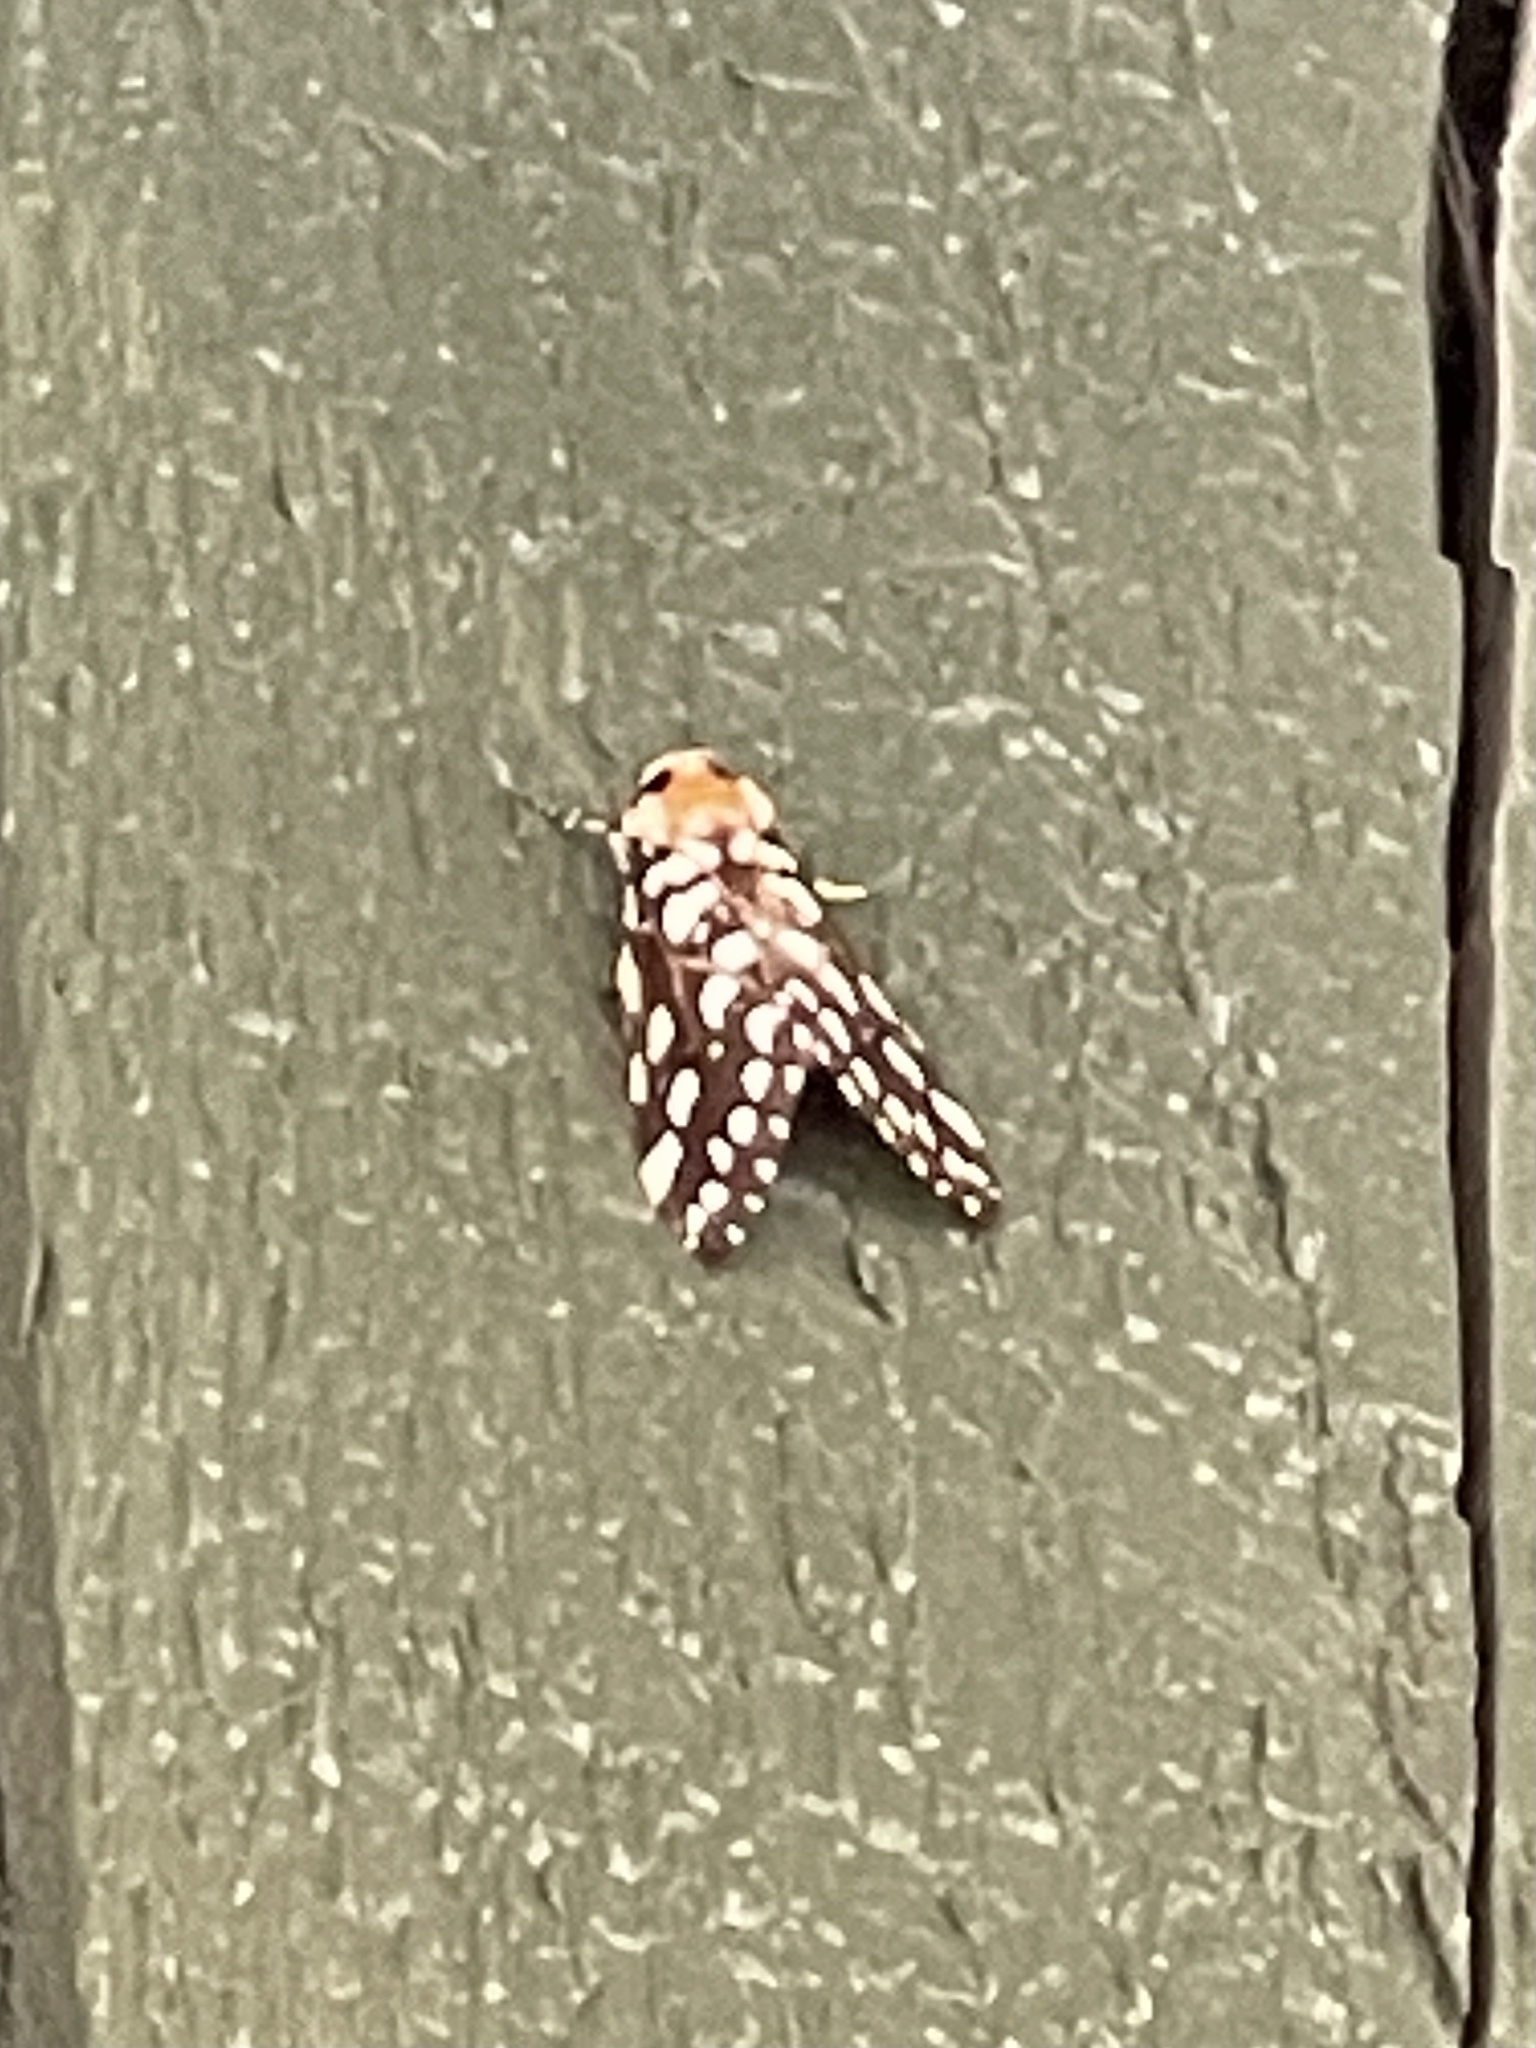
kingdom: Animalia
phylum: Arthropoda
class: Insecta
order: Lepidoptera
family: Erebidae
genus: Lophocampa
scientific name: Lophocampa ingens
